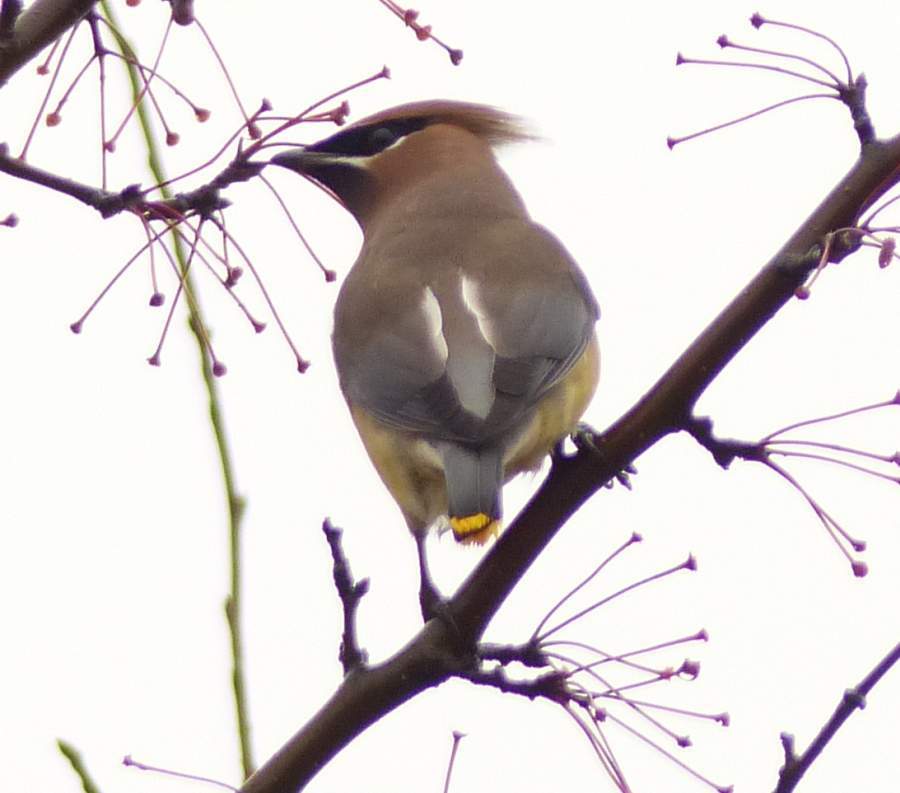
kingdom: Animalia
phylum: Chordata
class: Aves
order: Passeriformes
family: Bombycillidae
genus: Bombycilla
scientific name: Bombycilla cedrorum
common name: Cedar waxwing
